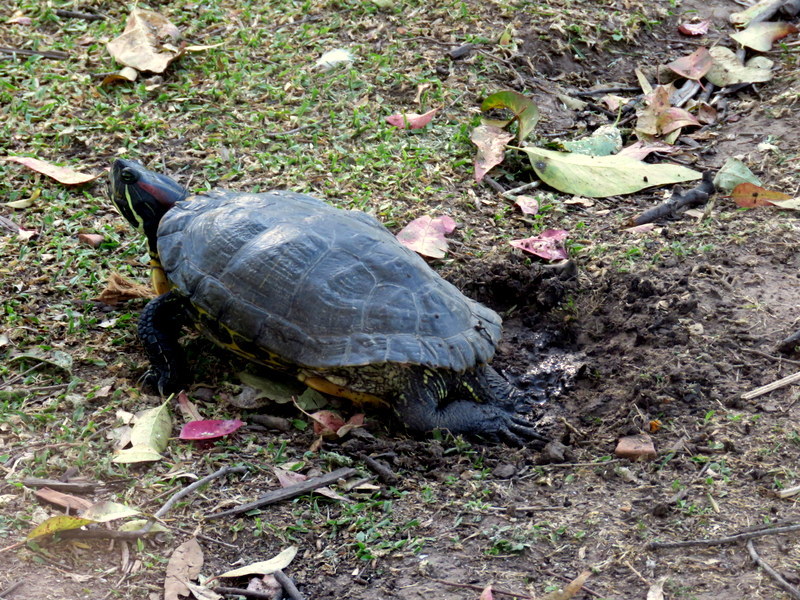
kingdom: Animalia
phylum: Chordata
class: Testudines
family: Emydidae
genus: Trachemys
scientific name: Trachemys scripta
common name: Slider
